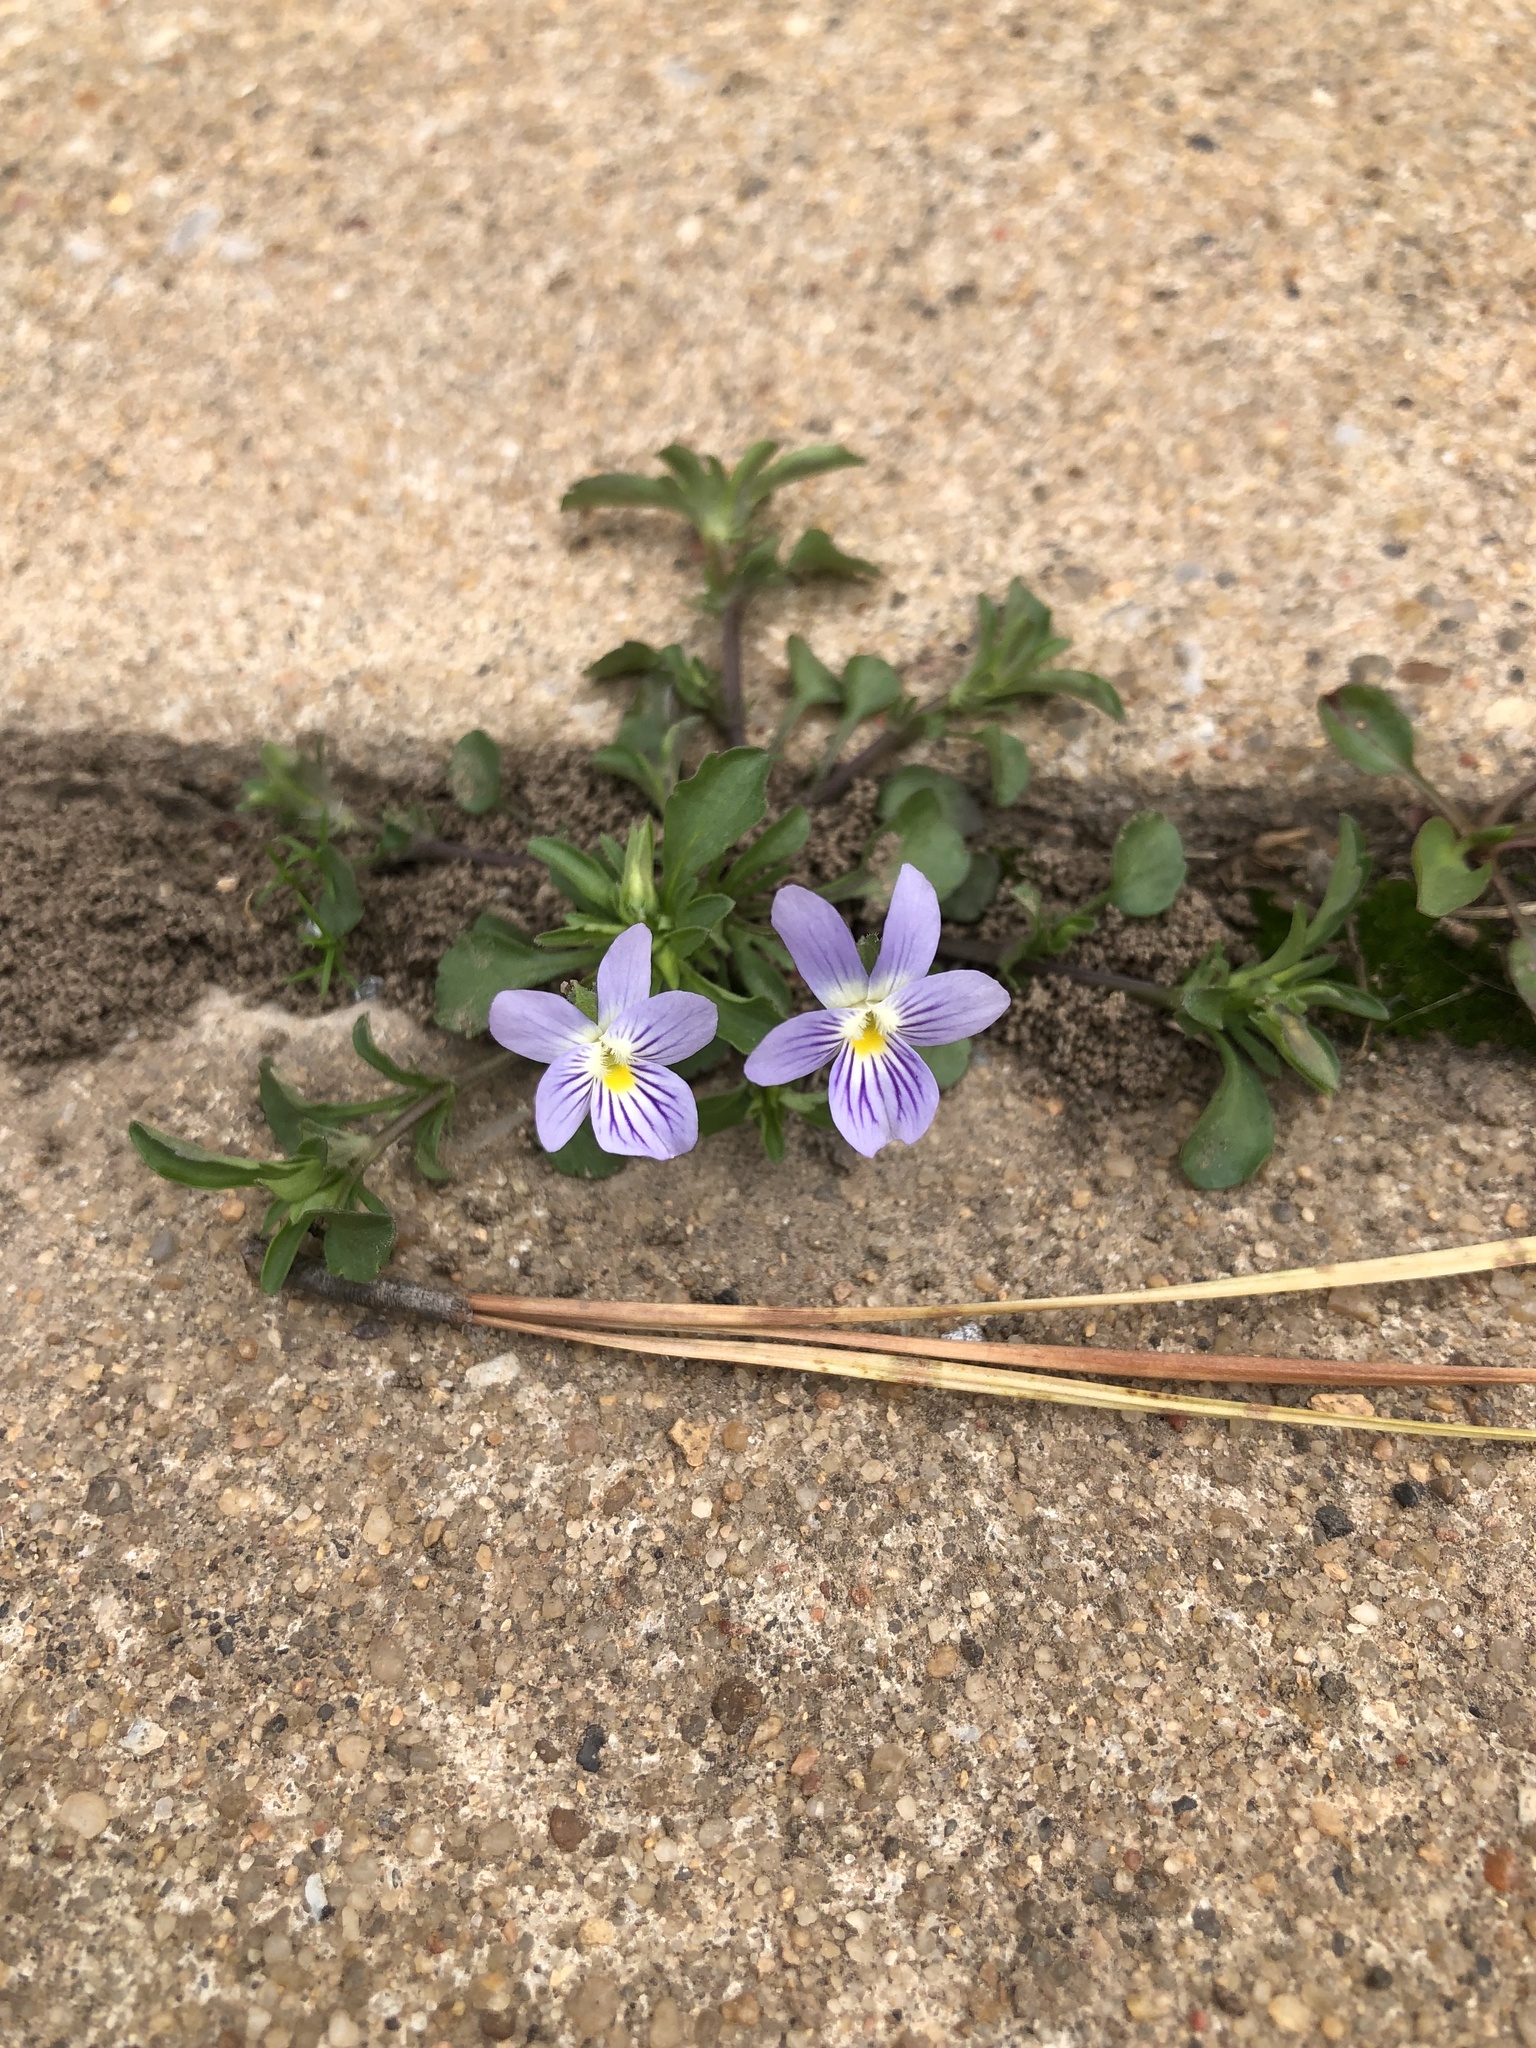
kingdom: Plantae
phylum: Tracheophyta
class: Magnoliopsida
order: Malpighiales
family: Violaceae
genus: Viola
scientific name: Viola rafinesquei
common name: American field pansy
